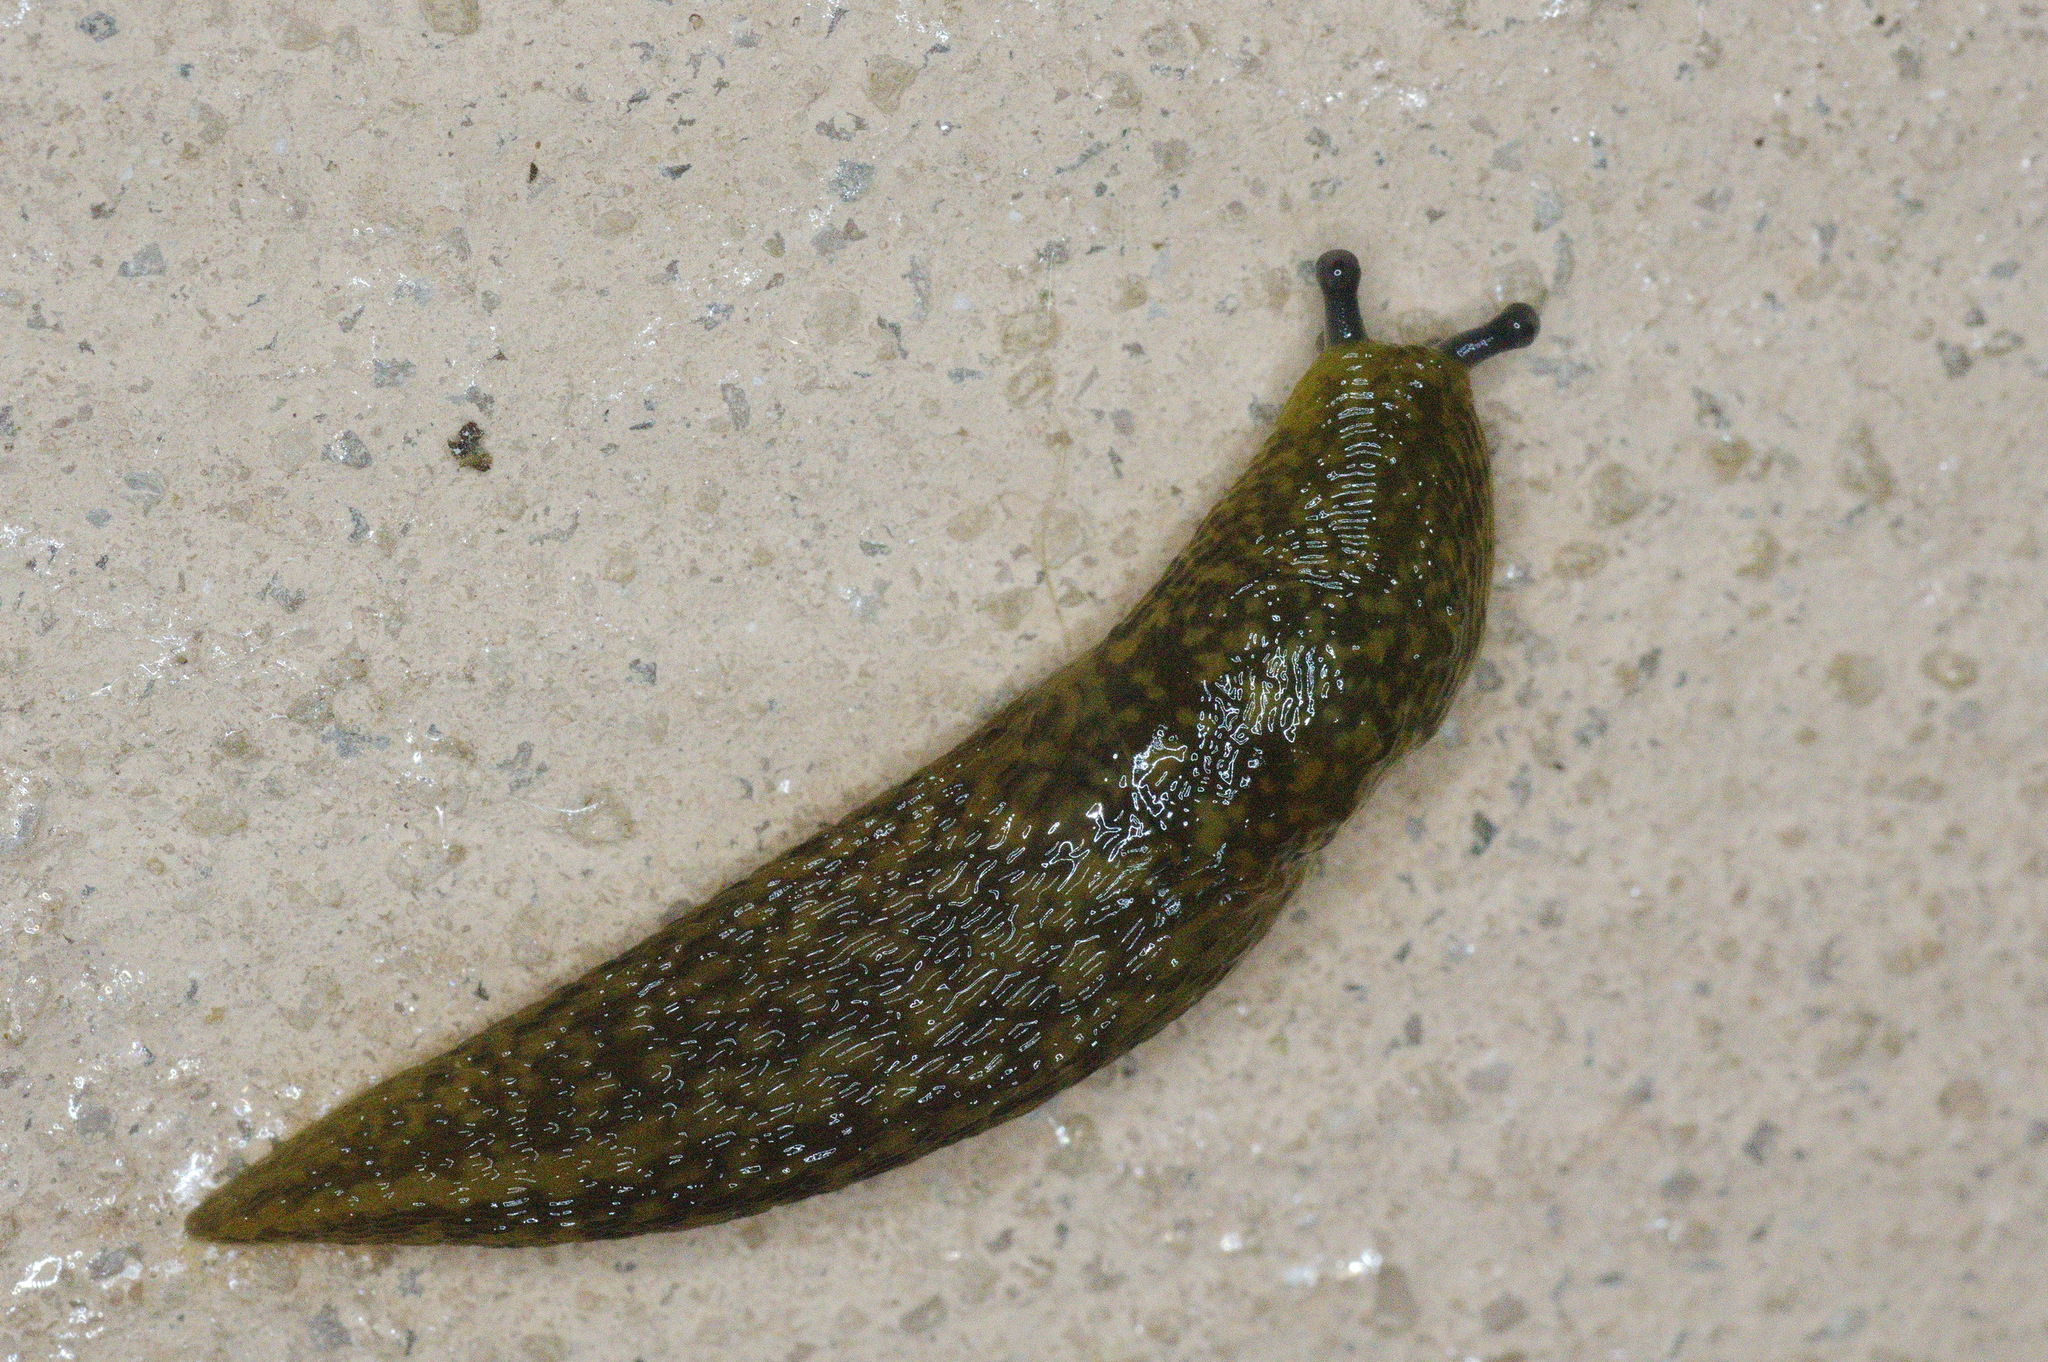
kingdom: Animalia
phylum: Mollusca
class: Gastropoda
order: Stylommatophora
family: Limacidae
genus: Limacus
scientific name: Limacus flavus
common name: Yellow gardenslug
